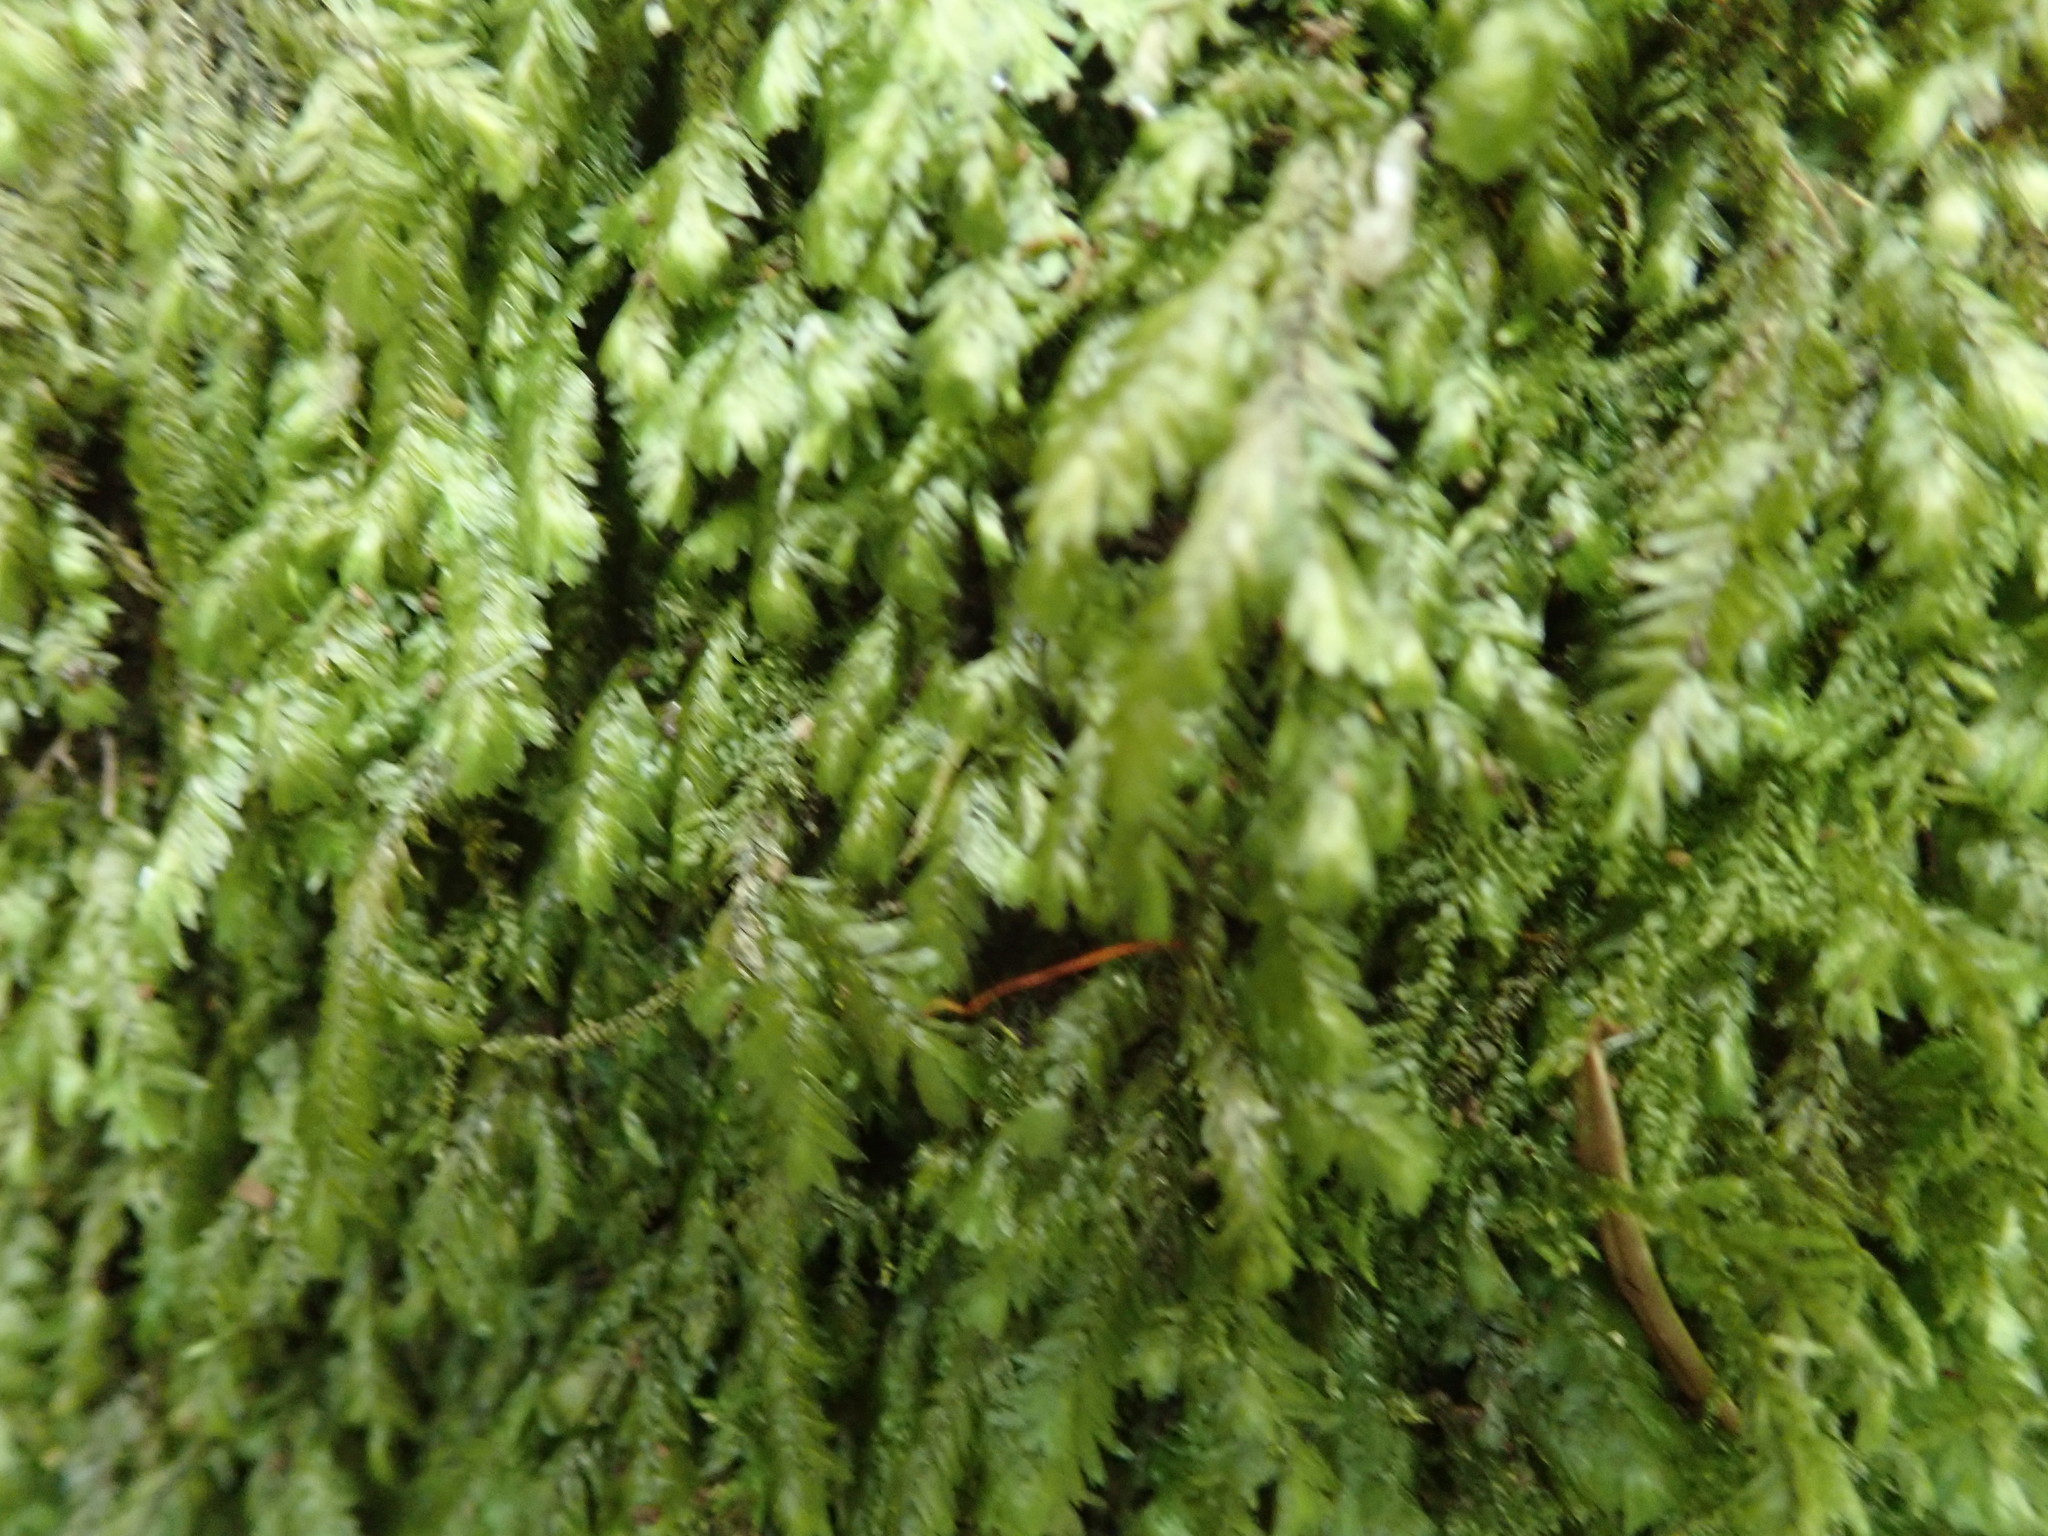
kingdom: Plantae
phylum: Bryophyta
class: Bryopsida
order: Hypnales
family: Neckeraceae
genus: Dannorrisia
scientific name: Dannorrisia bigelovii
